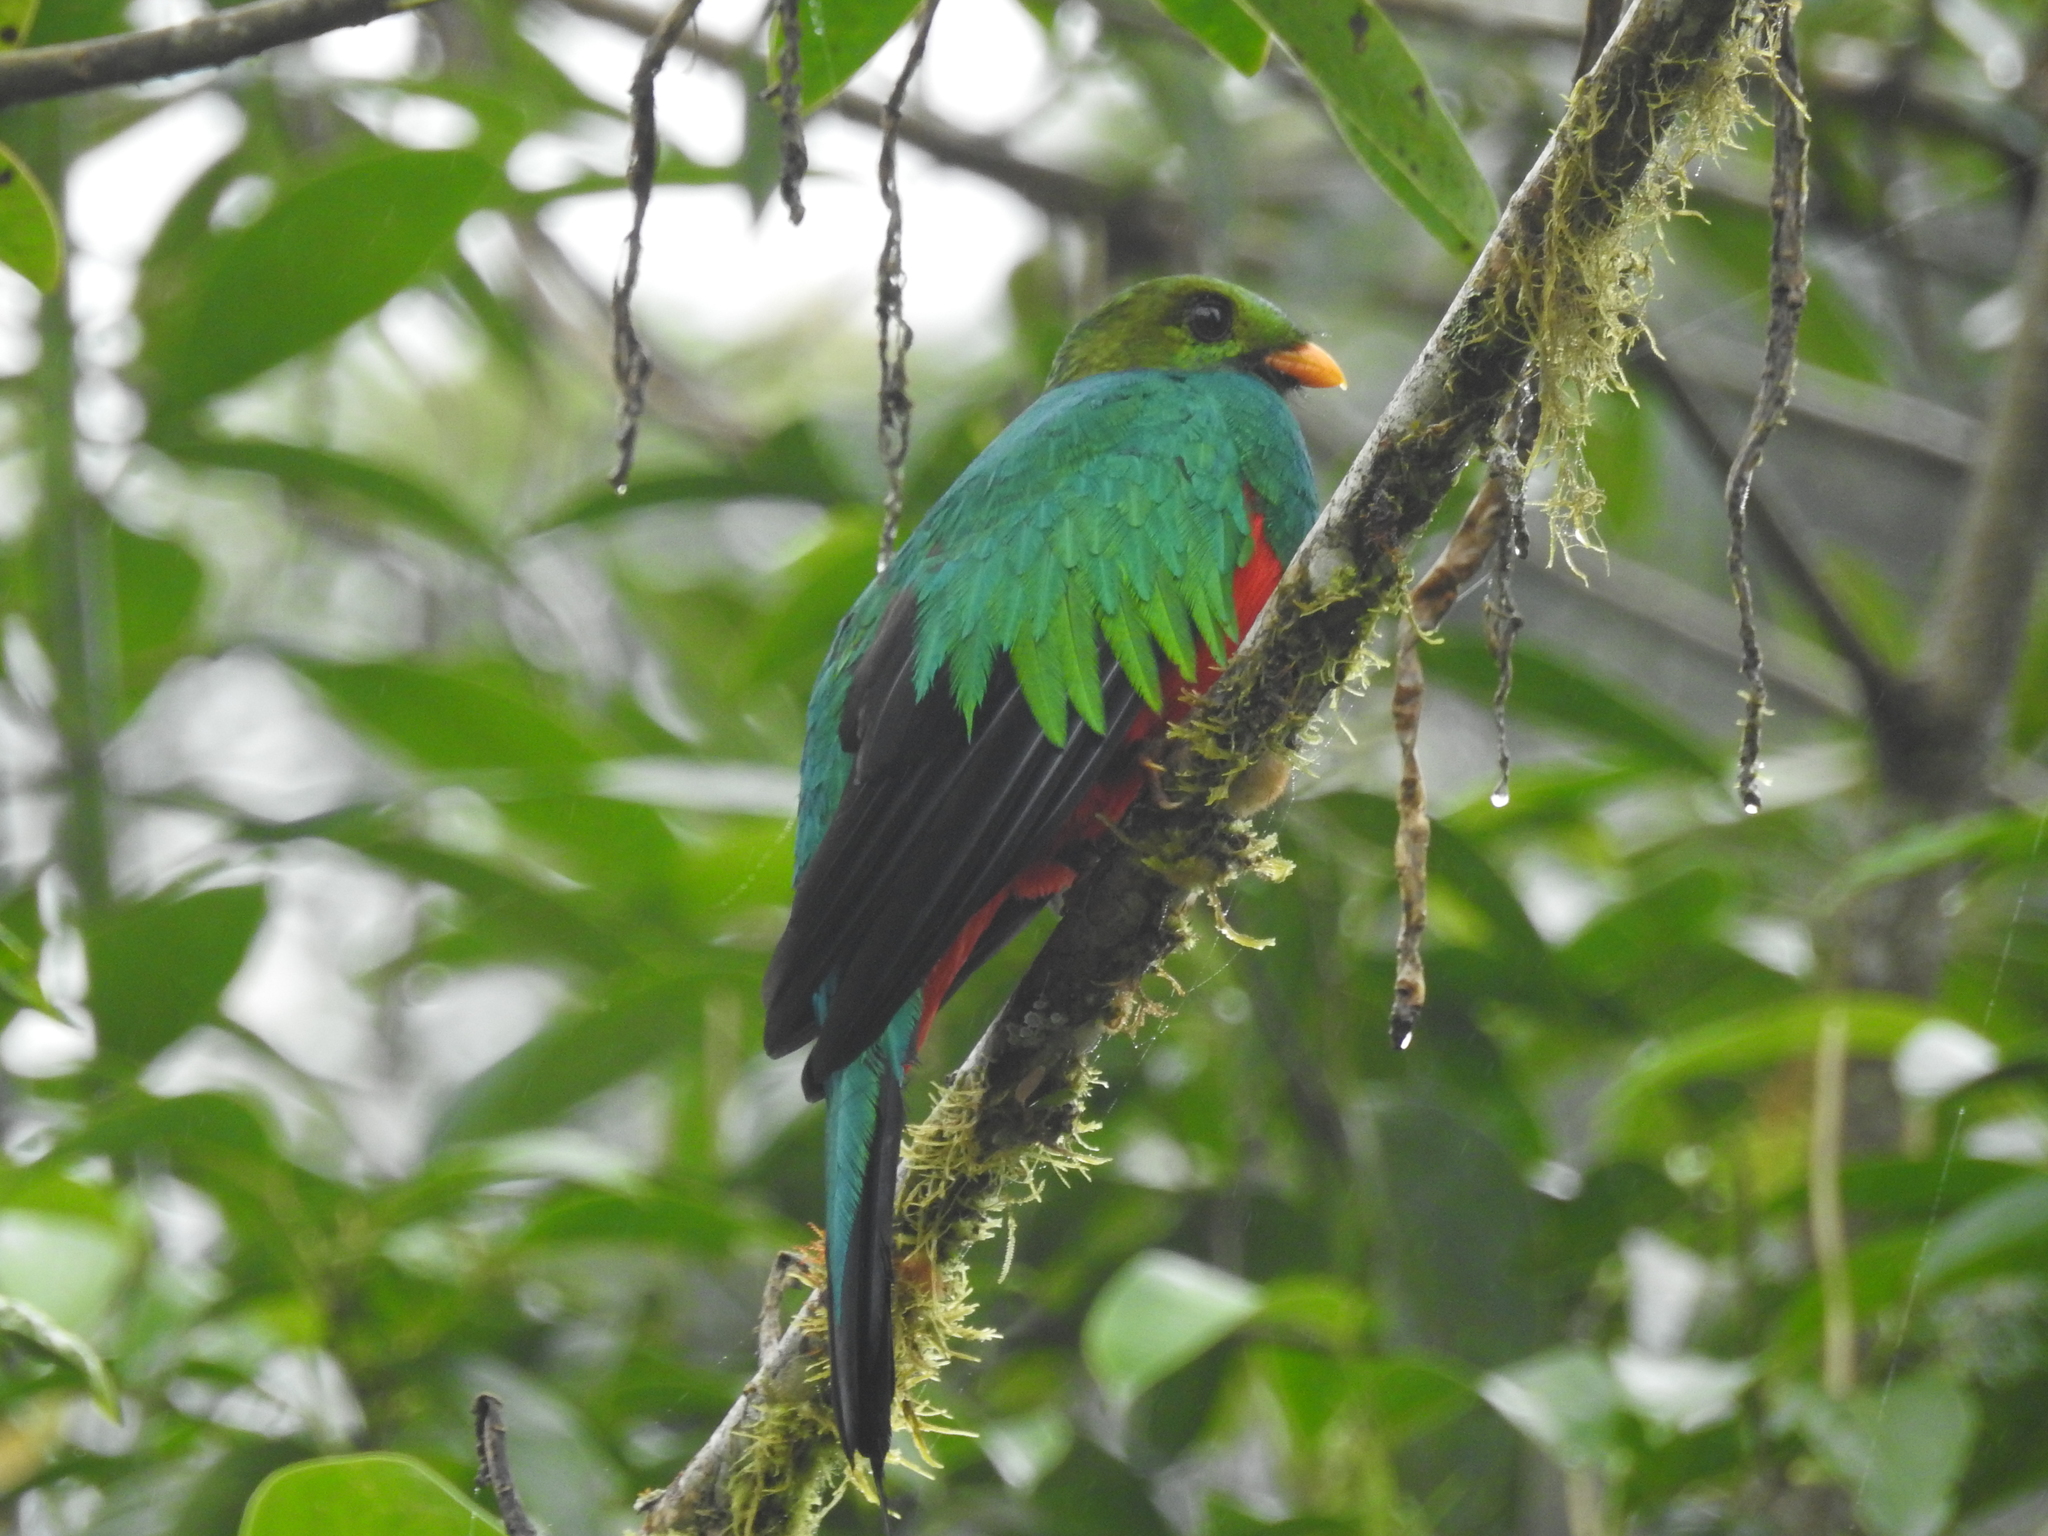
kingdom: Animalia
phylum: Chordata
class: Aves
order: Trogoniformes
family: Trogonidae
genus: Pharomachrus
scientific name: Pharomachrus auriceps
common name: Golden-headed quetzal
